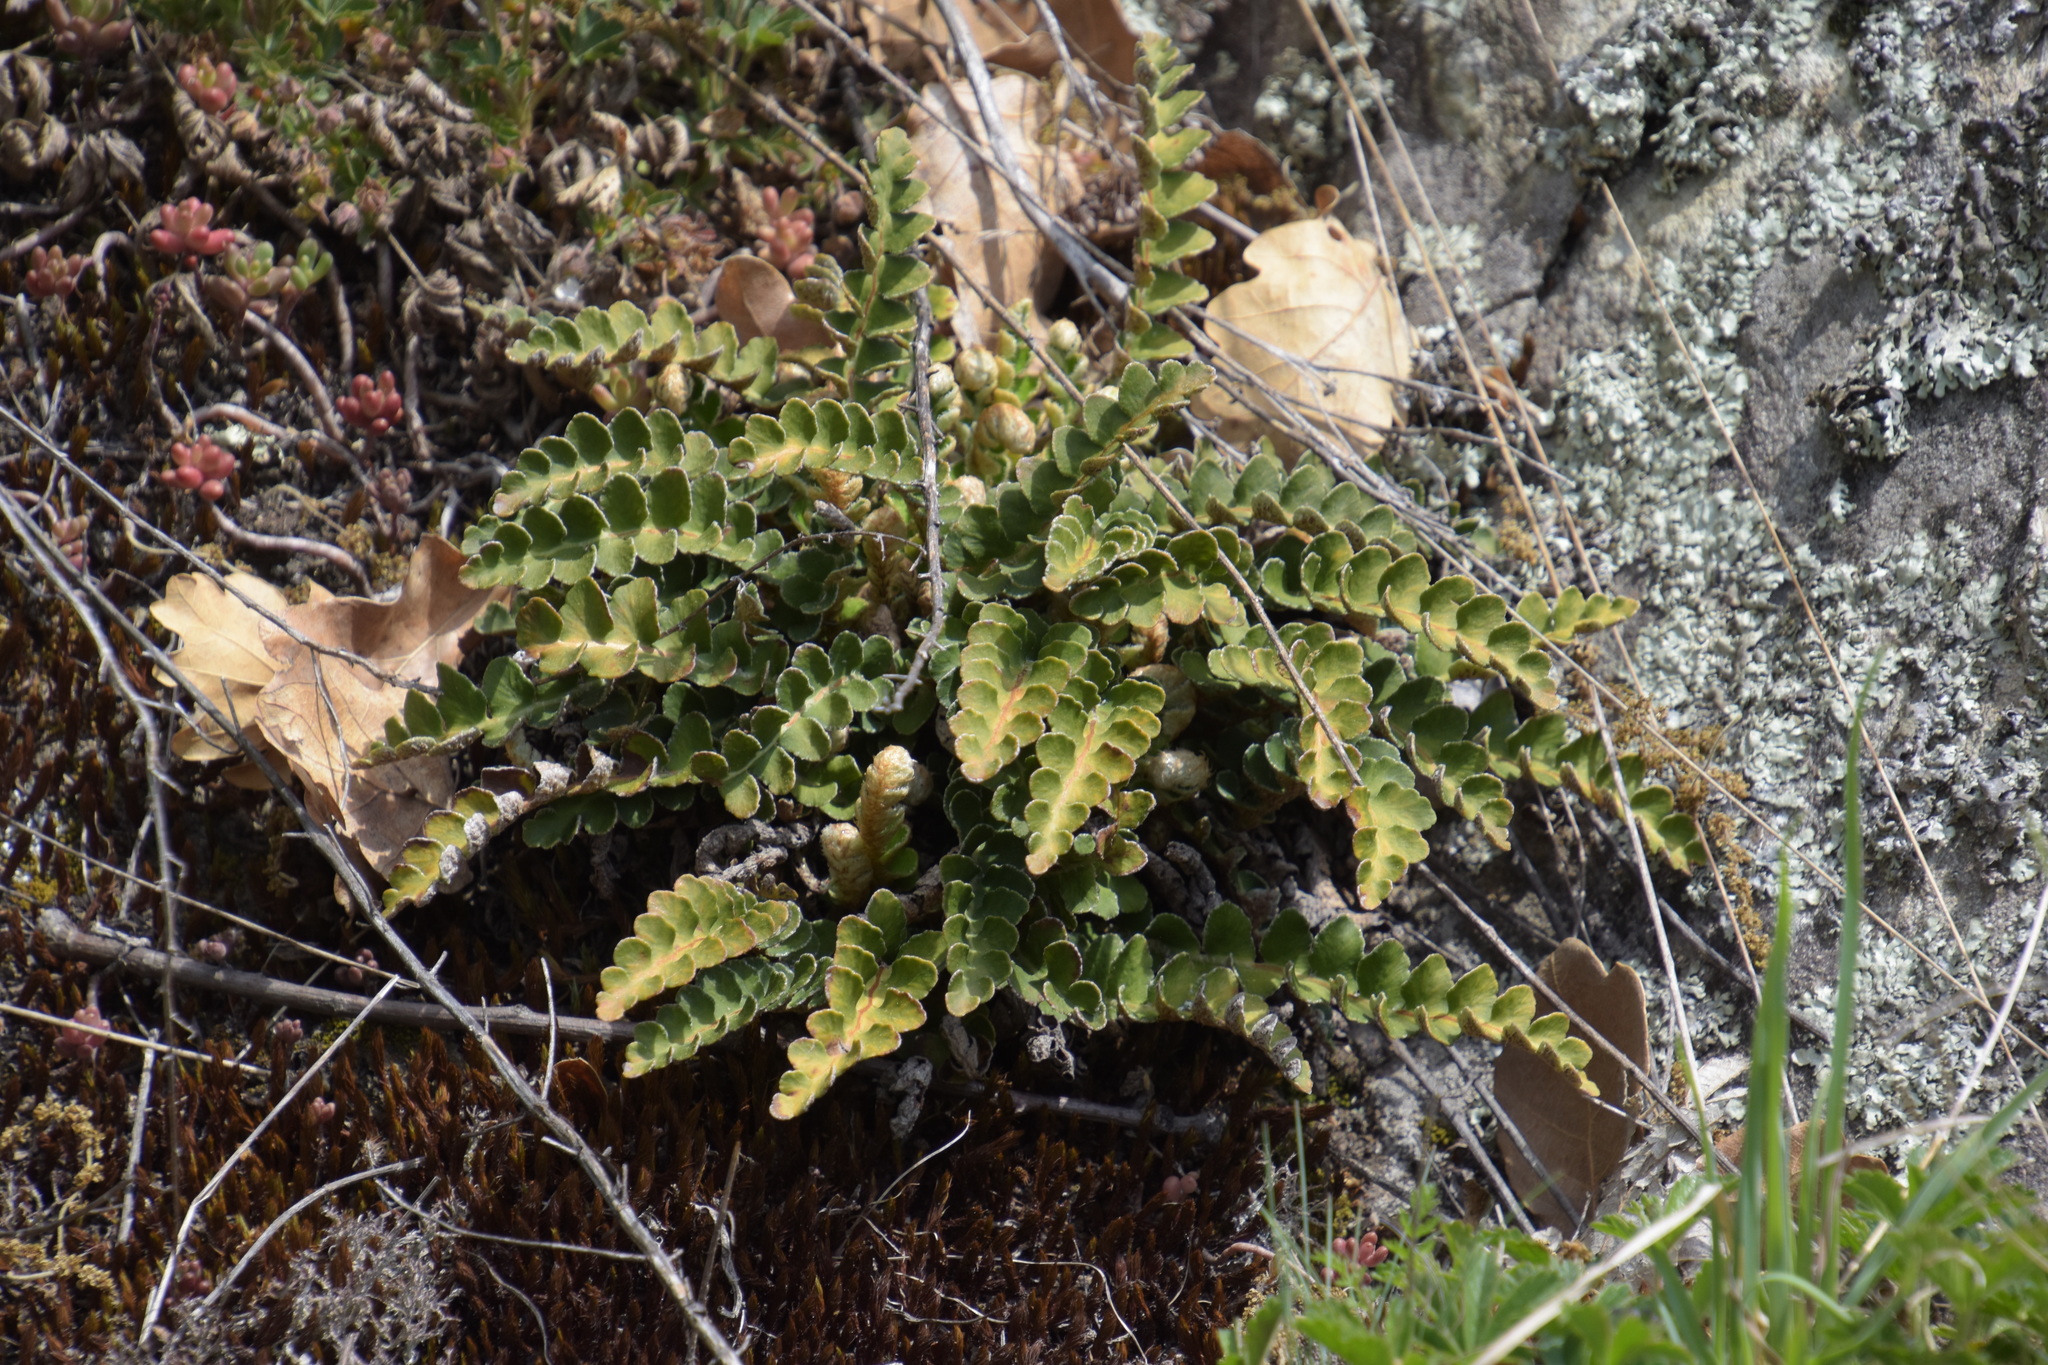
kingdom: Plantae
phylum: Tracheophyta
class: Polypodiopsida
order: Polypodiales
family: Aspleniaceae
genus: Asplenium
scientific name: Asplenium ceterach
